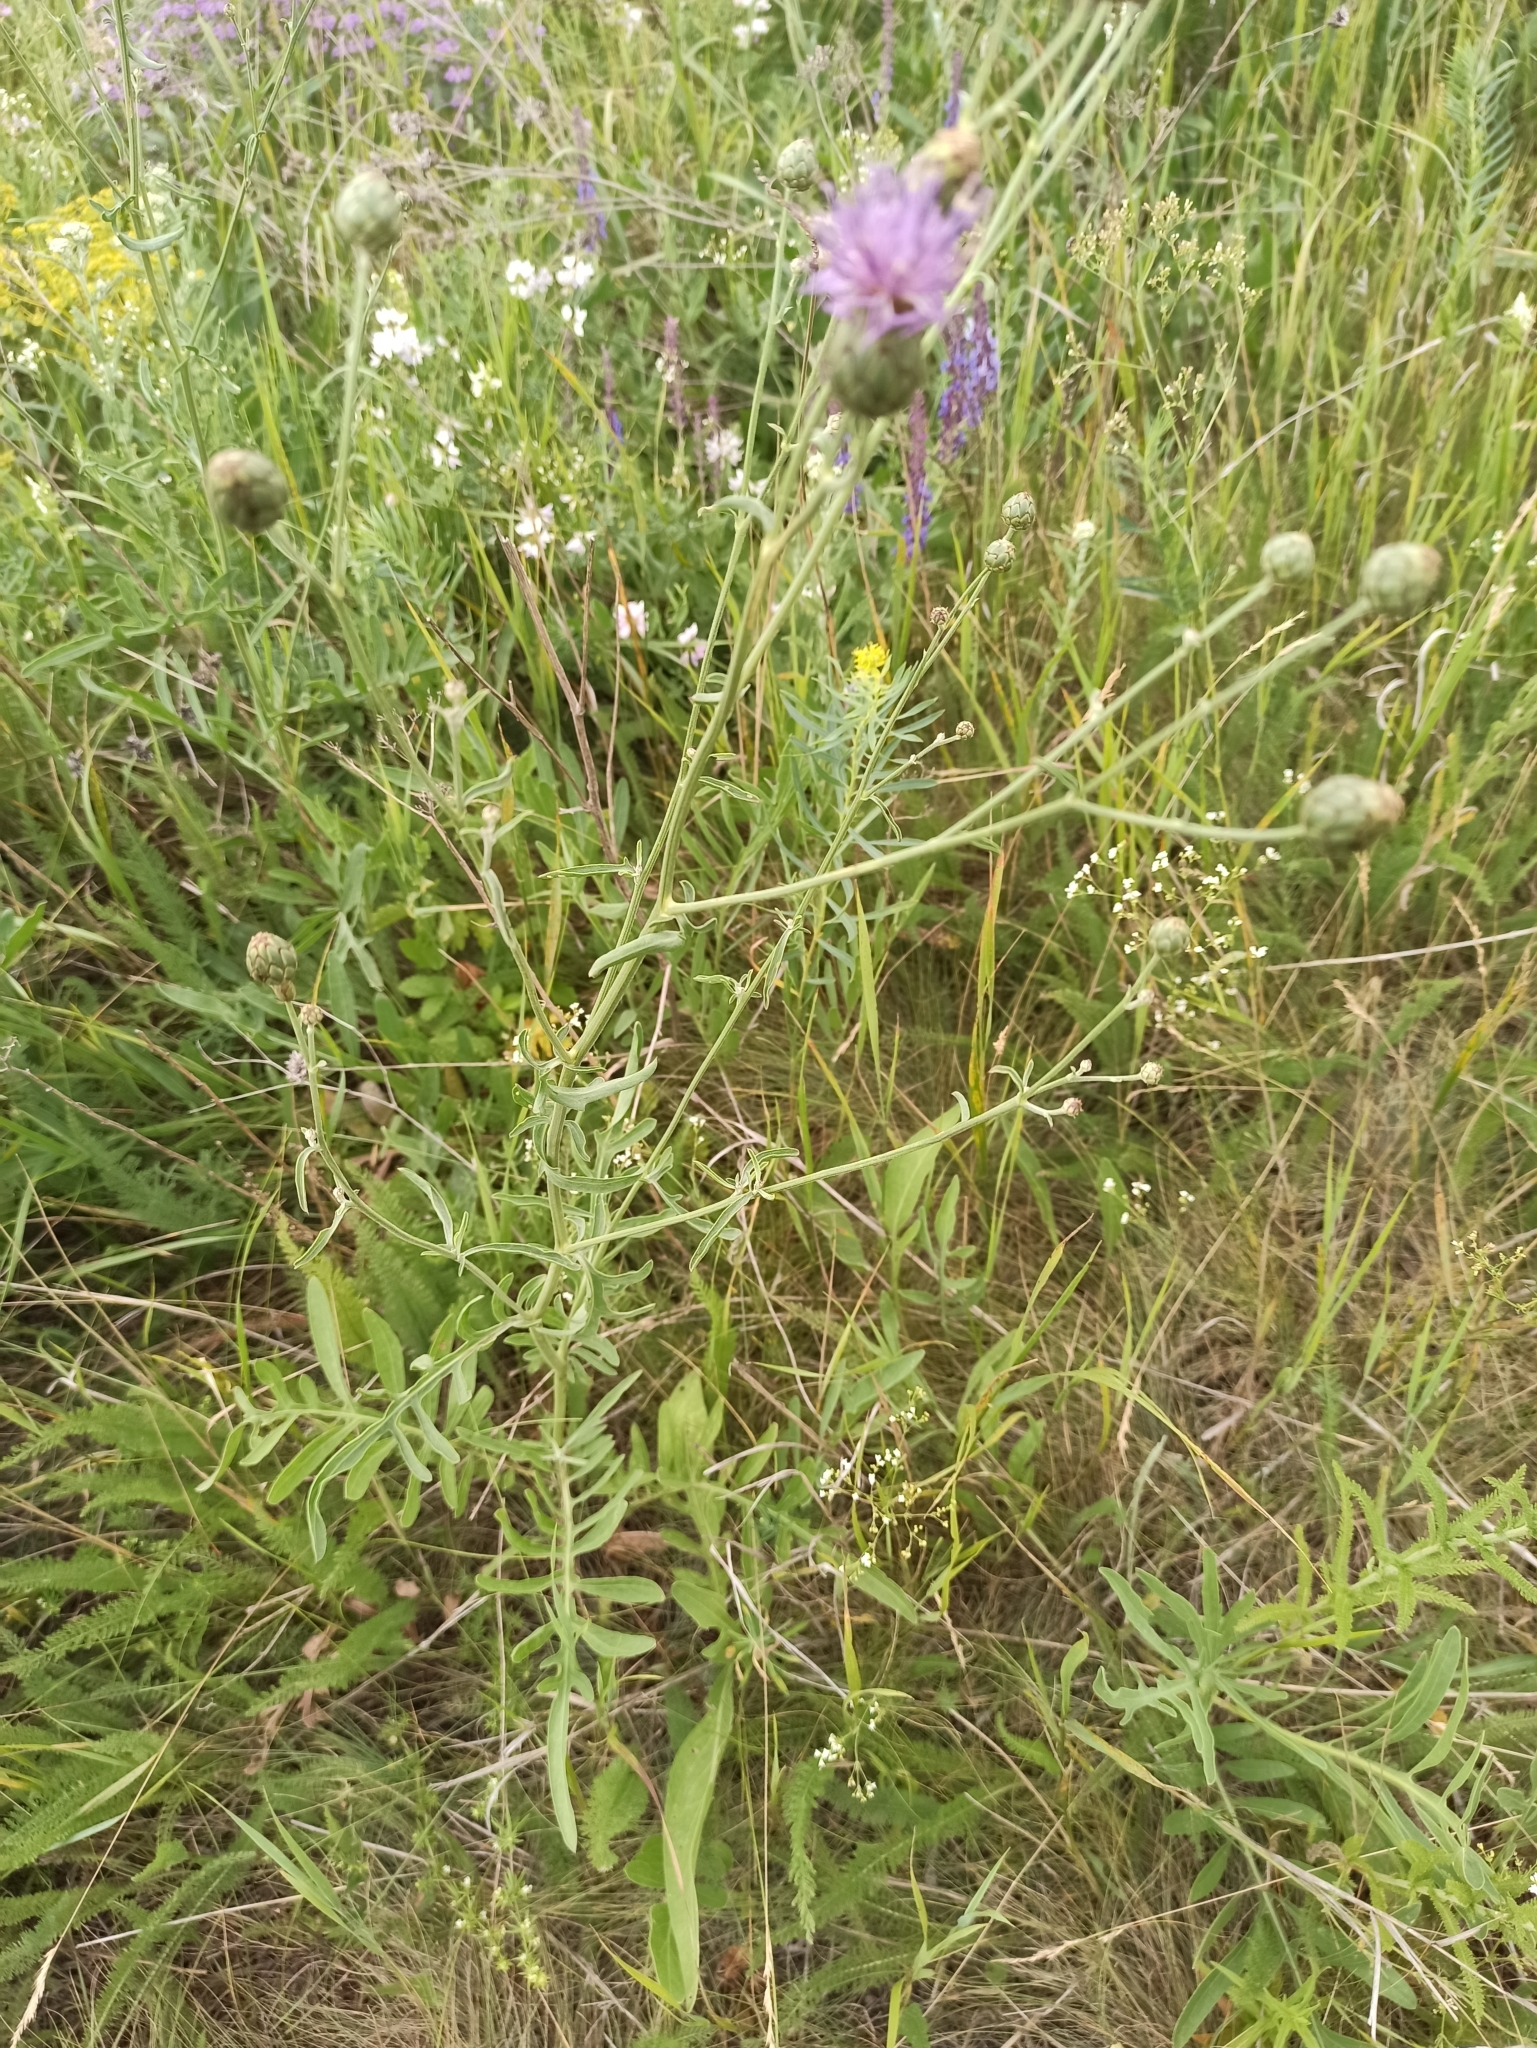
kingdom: Plantae
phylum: Tracheophyta
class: Magnoliopsida
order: Asterales
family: Asteraceae
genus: Centaurea
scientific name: Centaurea adpressa
